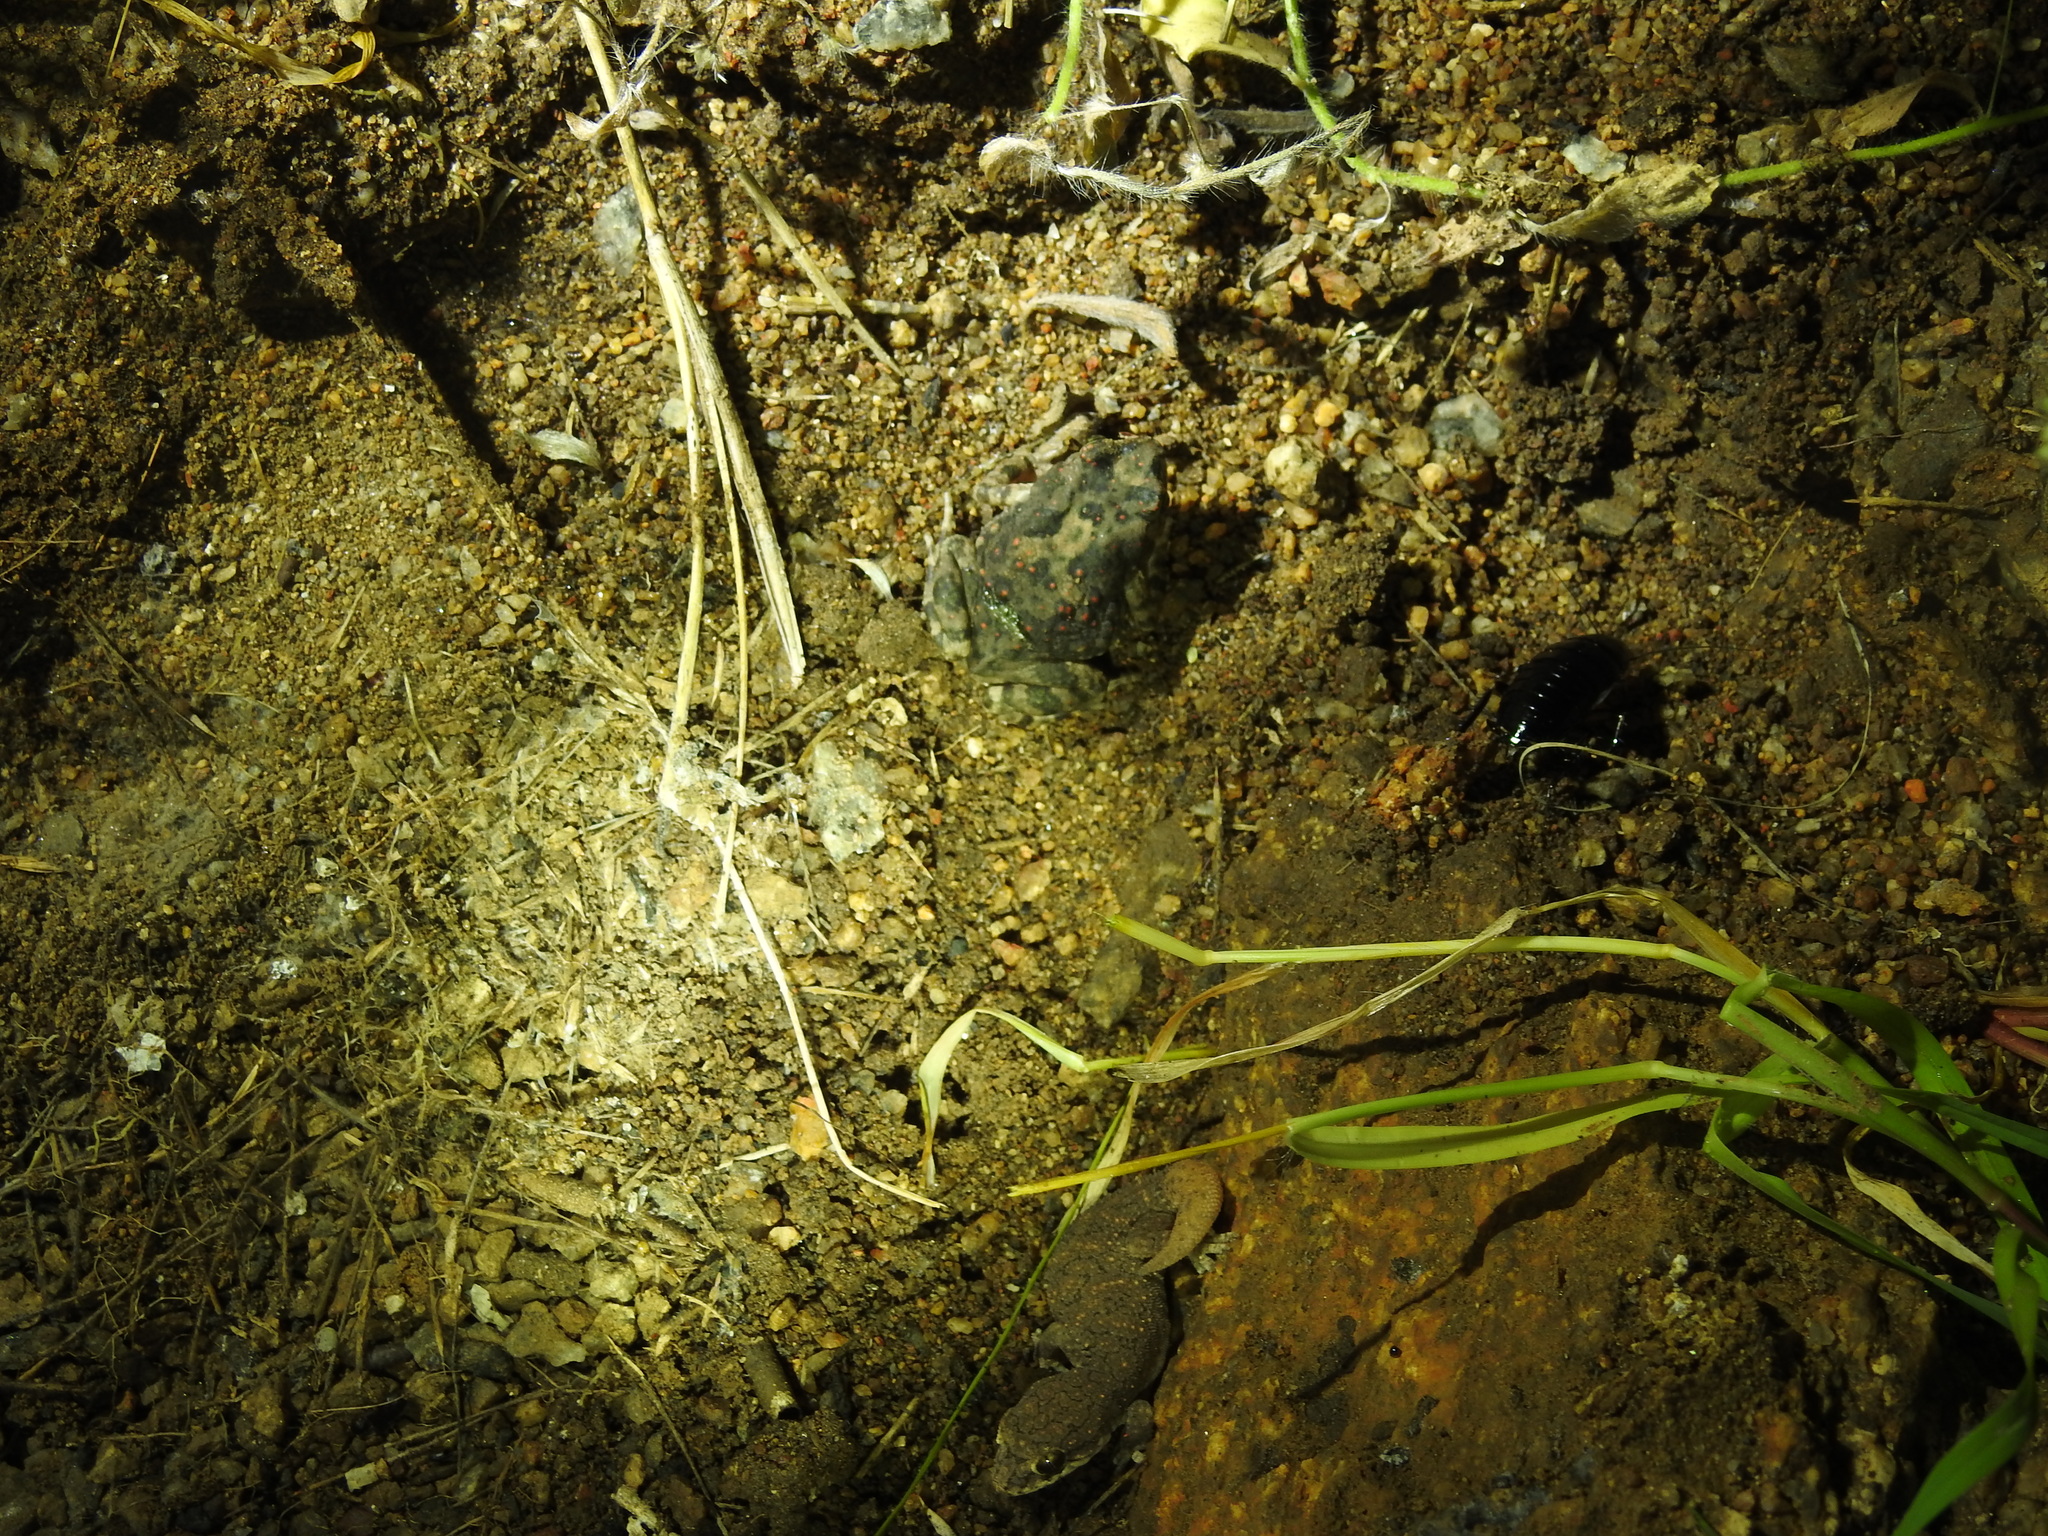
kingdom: Animalia
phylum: Chordata
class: Squamata
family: Gekkonidae
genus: Hemidactylus
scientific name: Hemidactylus reticulatus
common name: Reticulate leaf-toed gecko
